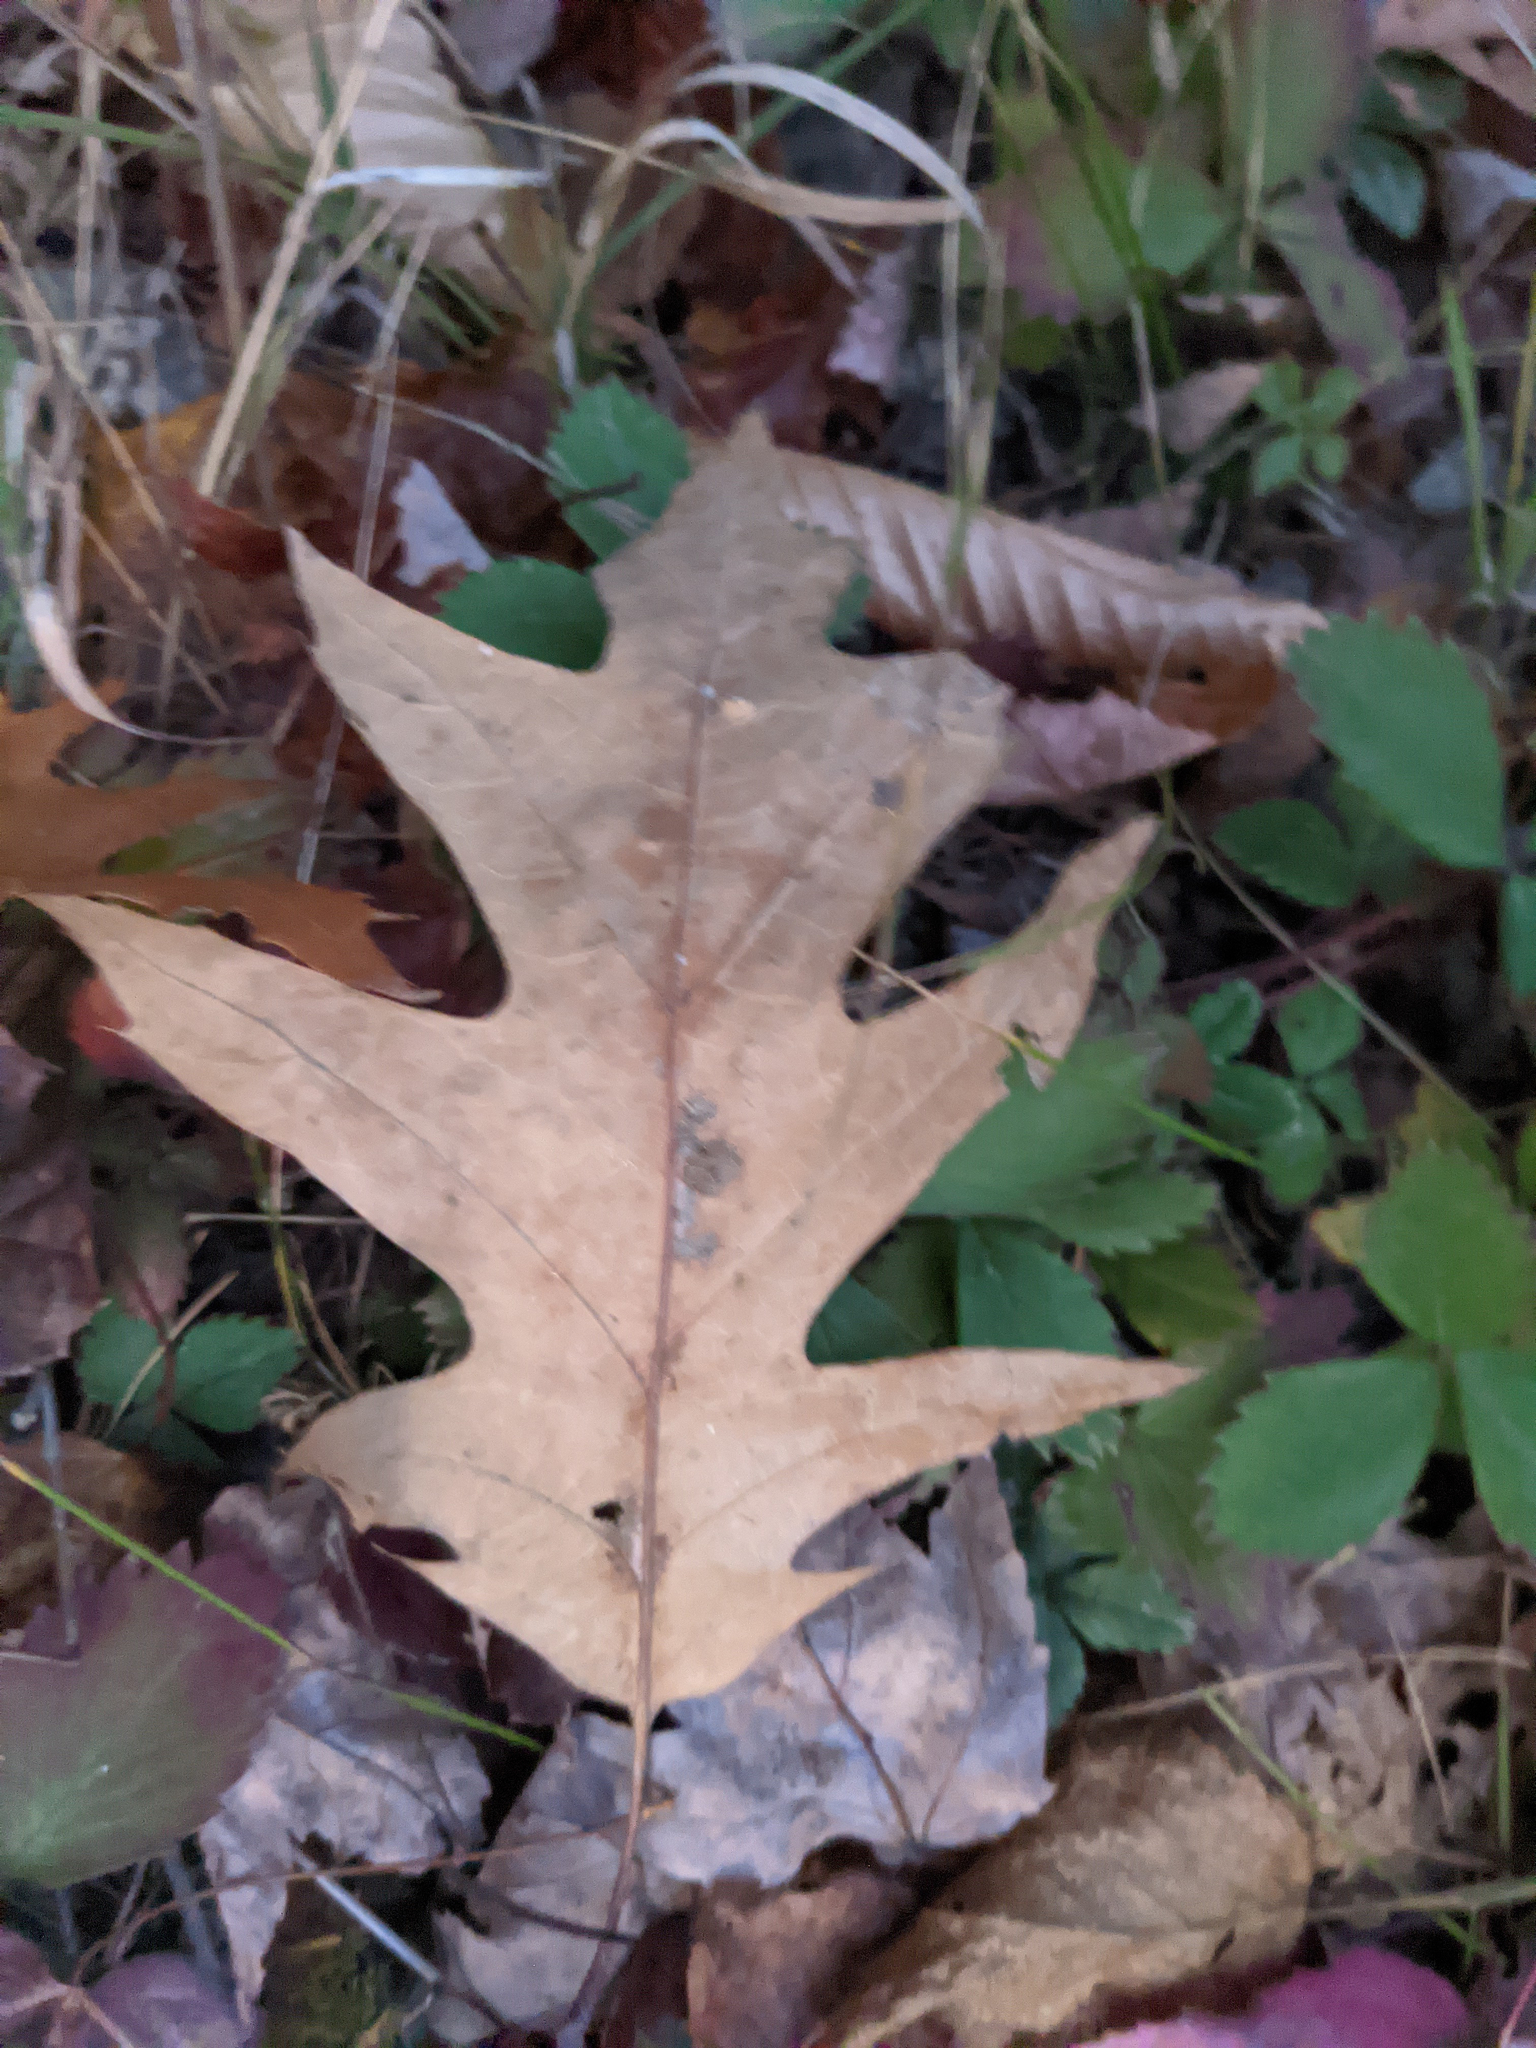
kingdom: Plantae
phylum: Tracheophyta
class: Magnoliopsida
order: Fagales
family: Fagaceae
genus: Quercus
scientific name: Quercus rubra
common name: Red oak
